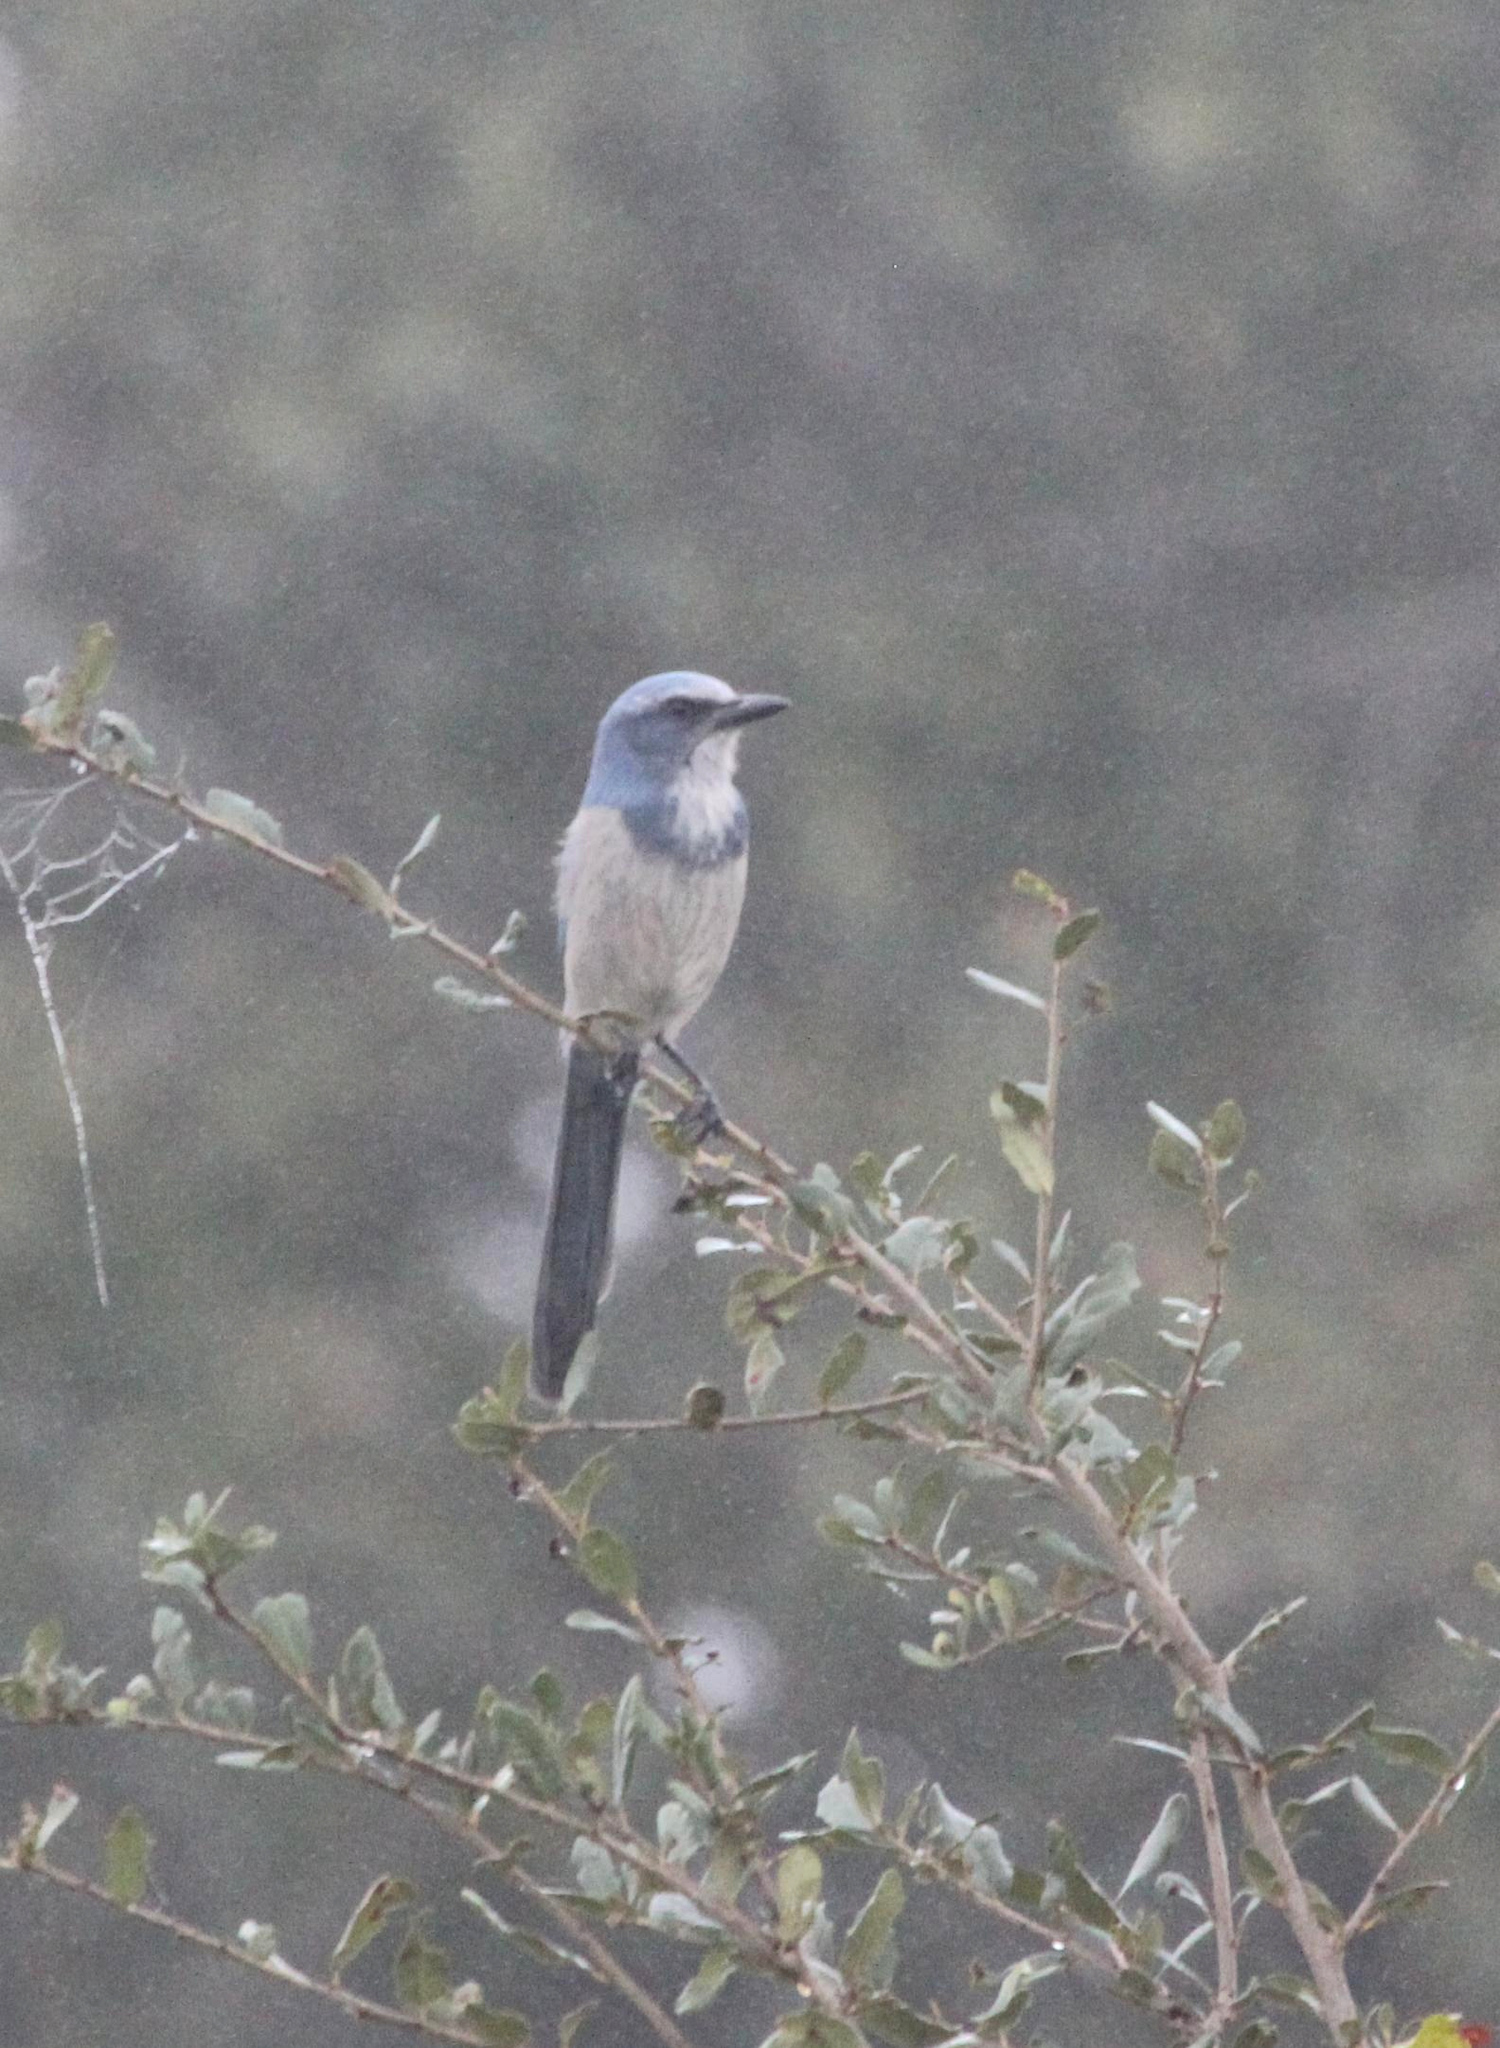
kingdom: Animalia
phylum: Chordata
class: Aves
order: Passeriformes
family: Corvidae
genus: Aphelocoma
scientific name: Aphelocoma coerulescens
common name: Florida scrub jay
